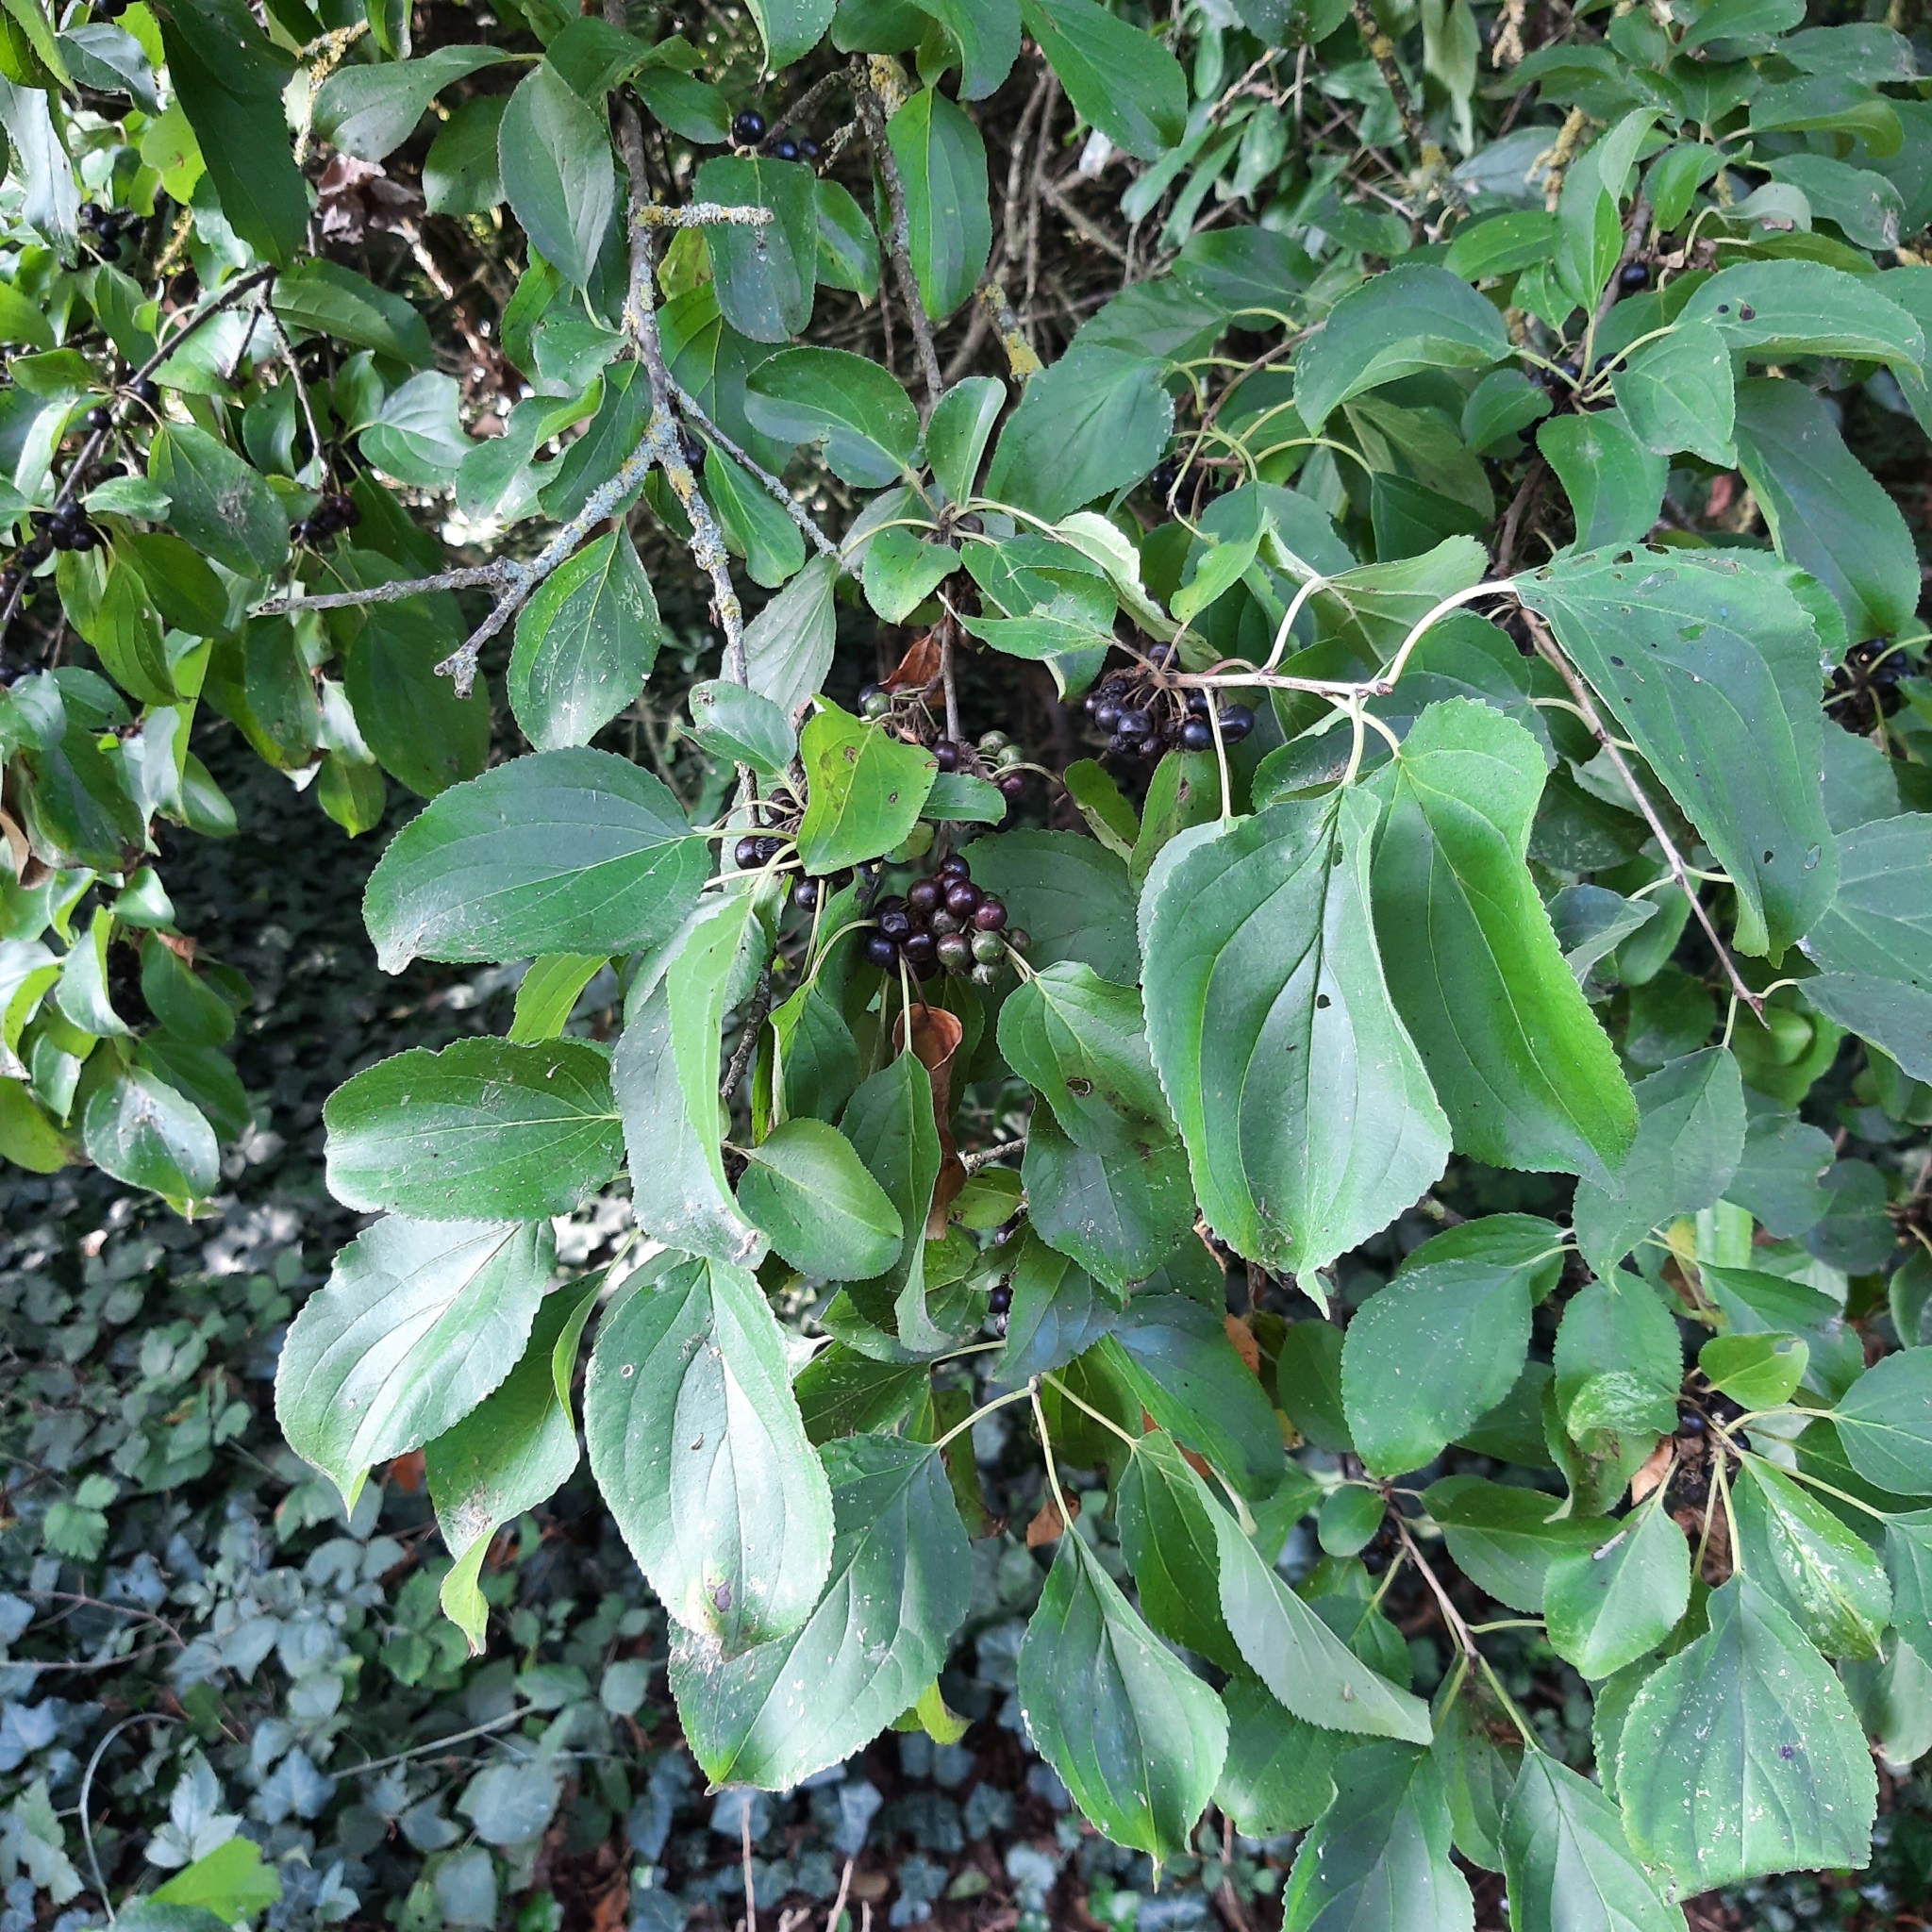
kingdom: Plantae
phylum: Tracheophyta
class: Magnoliopsida
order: Rosales
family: Rhamnaceae
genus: Rhamnus
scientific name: Rhamnus cathartica
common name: Common buckthorn
